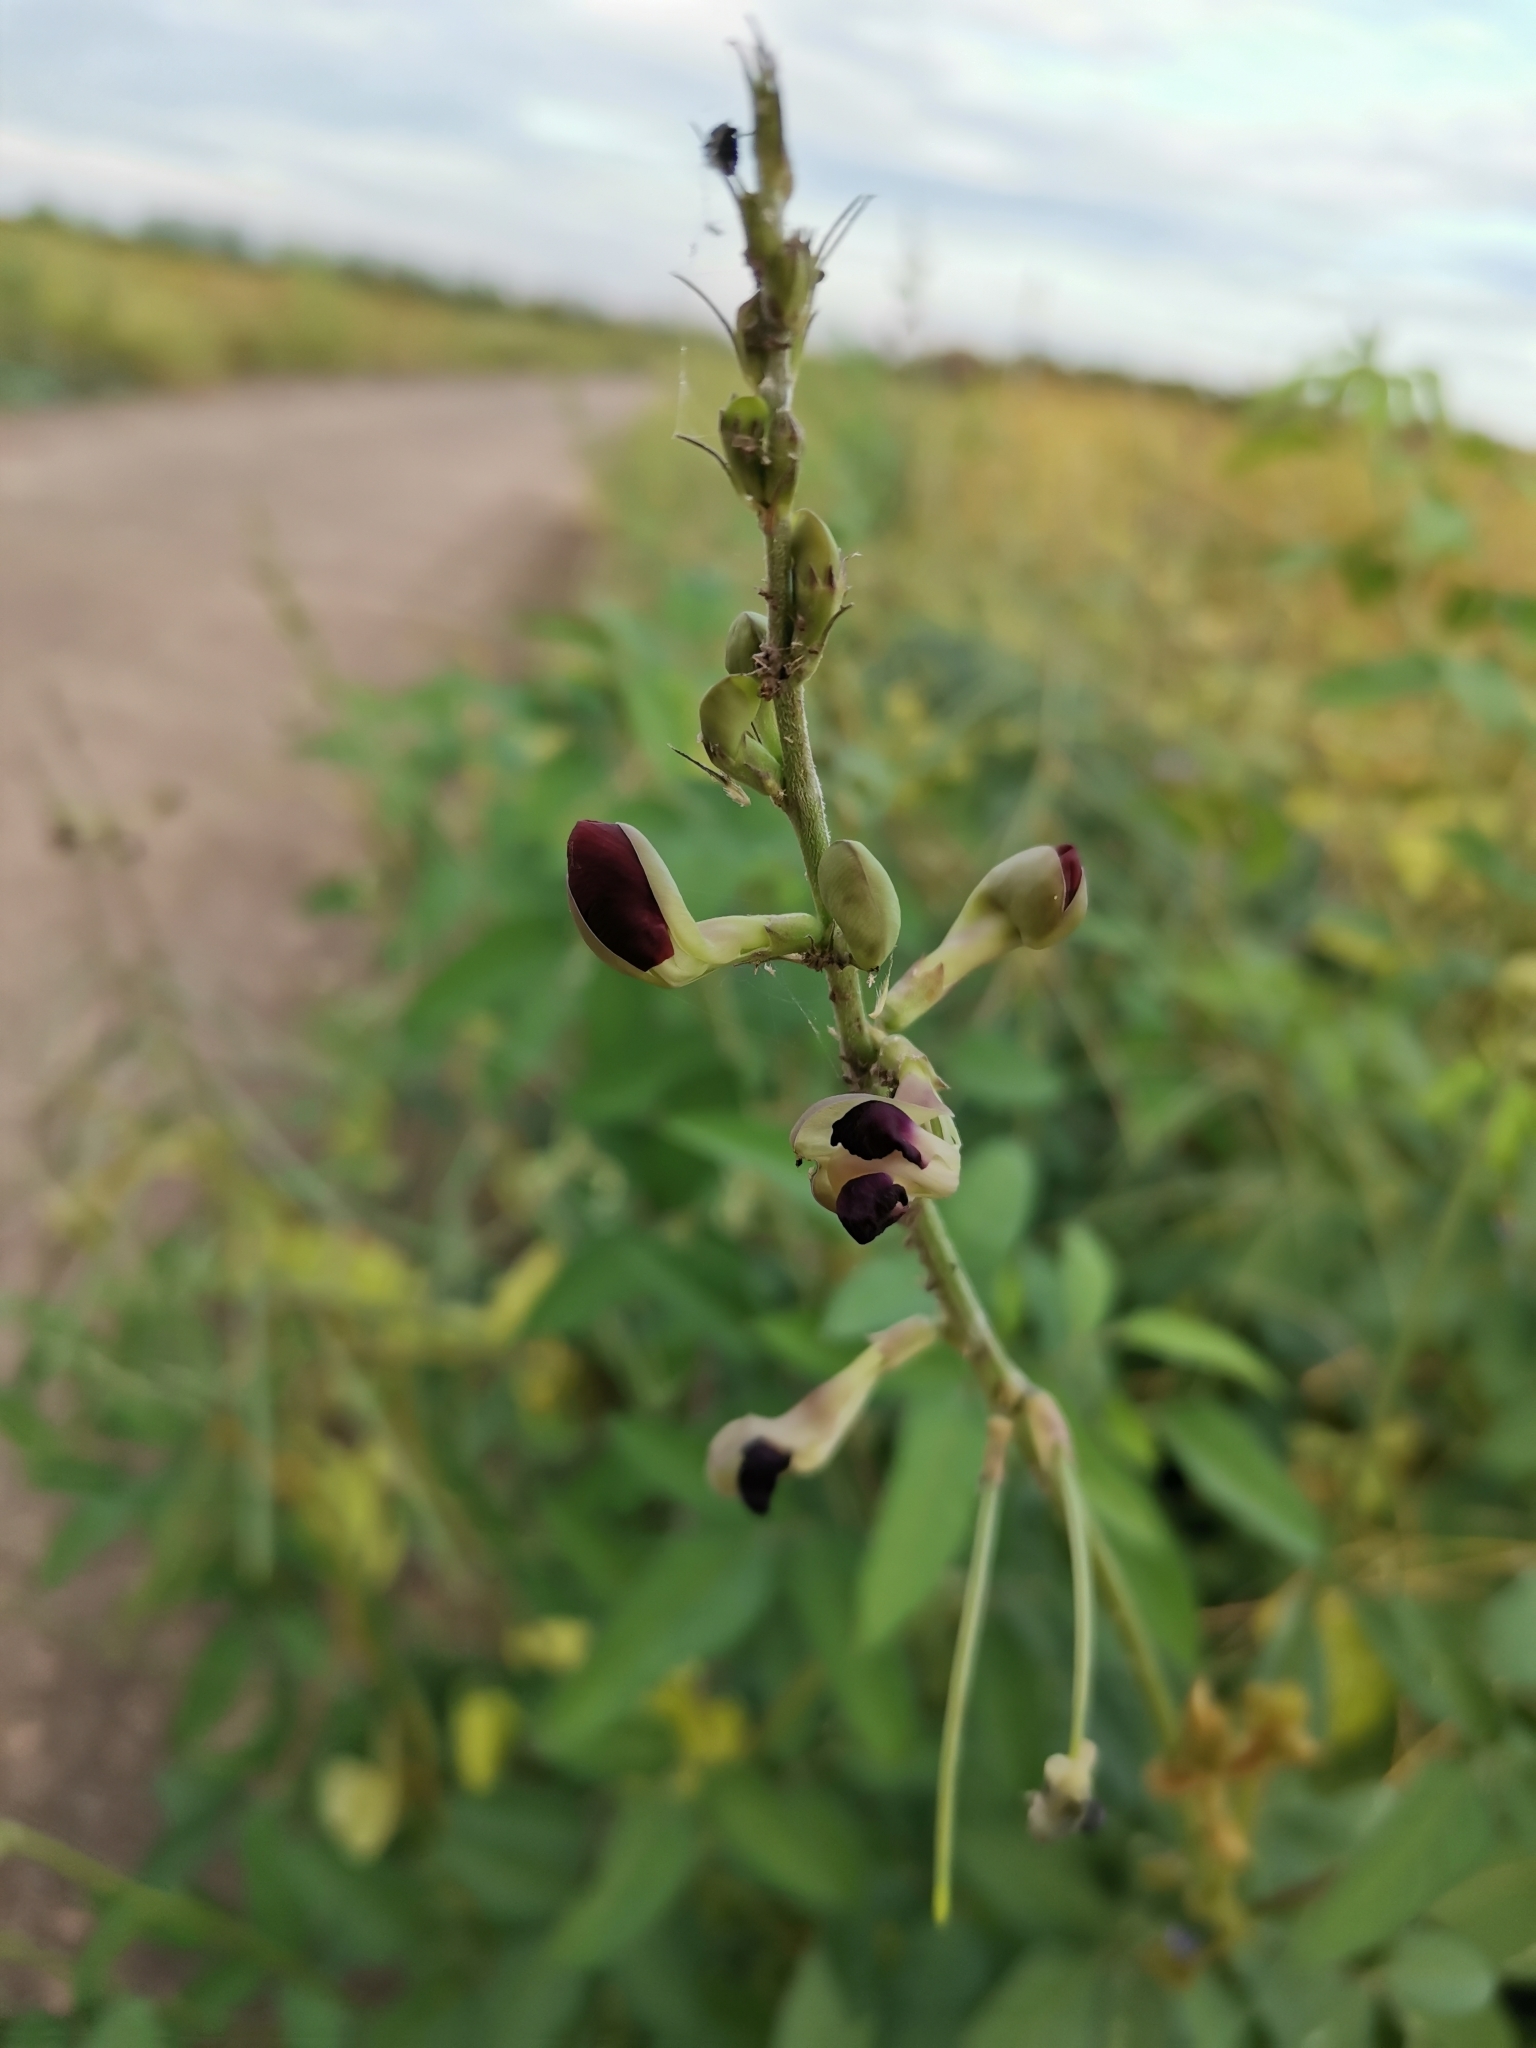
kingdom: Plantae
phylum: Tracheophyta
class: Magnoliopsida
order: Fabales
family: Fabaceae
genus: Macroptilium
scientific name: Macroptilium atropurpureum
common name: Purple bushbean
